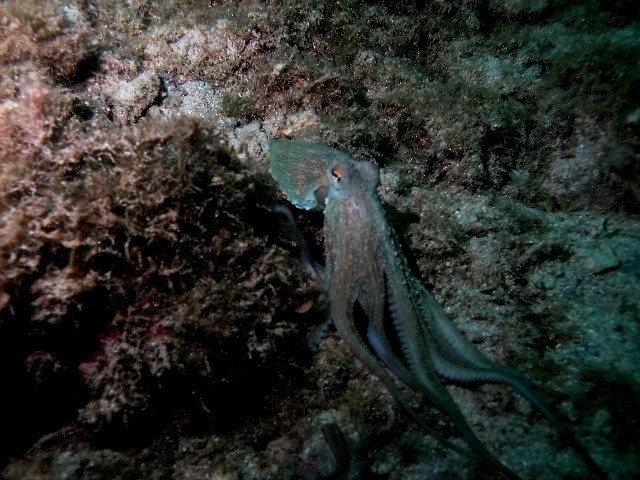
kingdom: Animalia
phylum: Mollusca
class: Cephalopoda
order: Octopoda
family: Octopodidae
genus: Octopus
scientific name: Octopus vulgaris
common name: Common octopus
